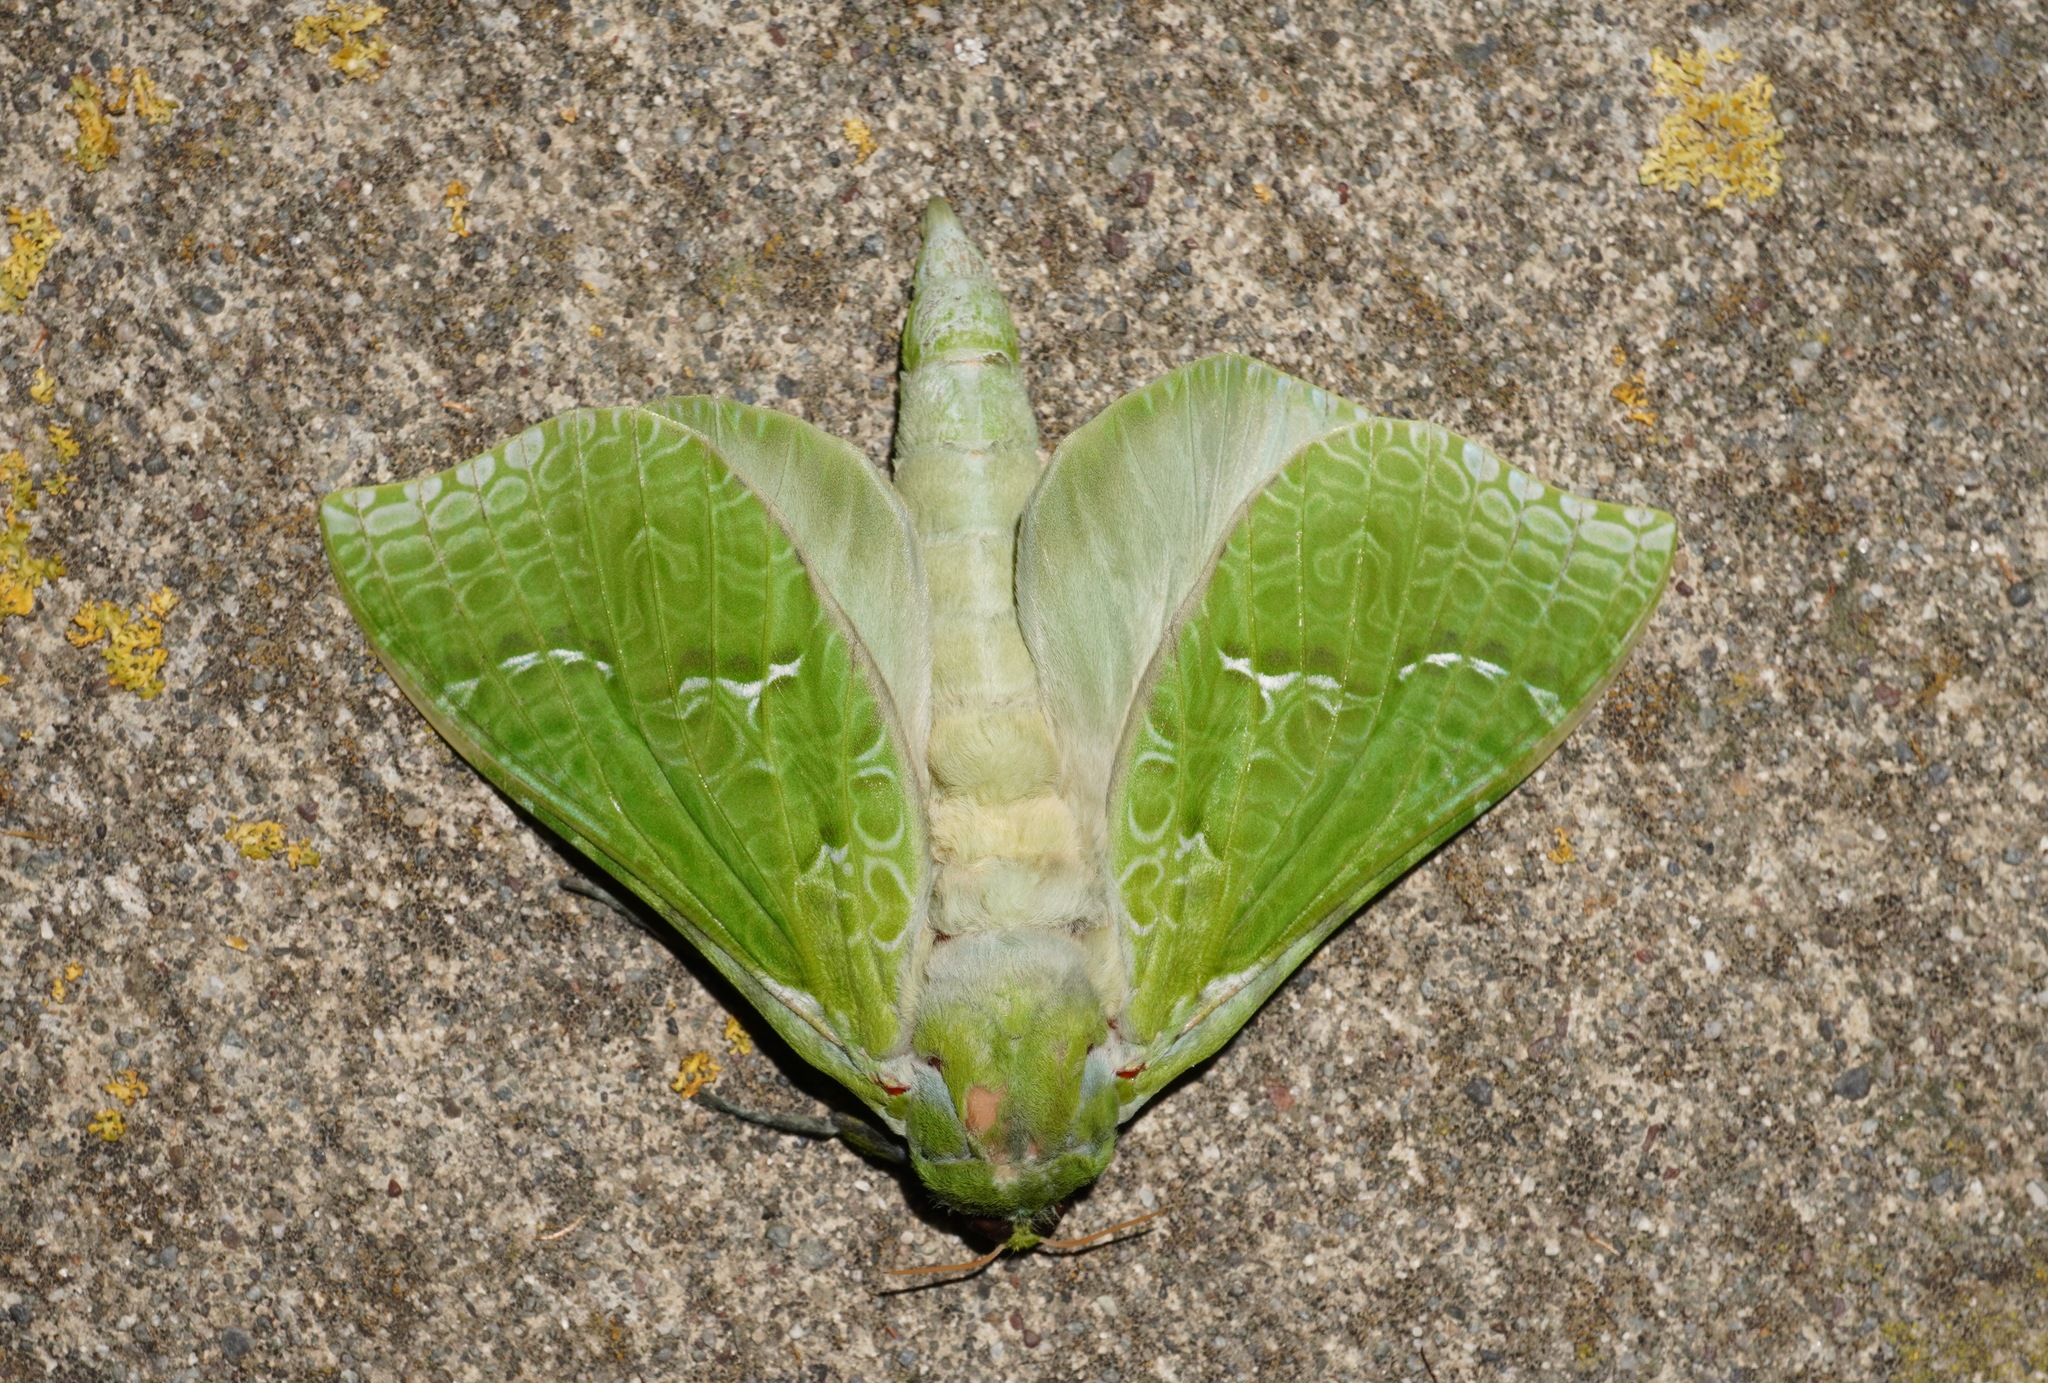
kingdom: Animalia
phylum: Arthropoda
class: Insecta
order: Lepidoptera
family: Hepialidae
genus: Aenetus
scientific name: Aenetus virescens
